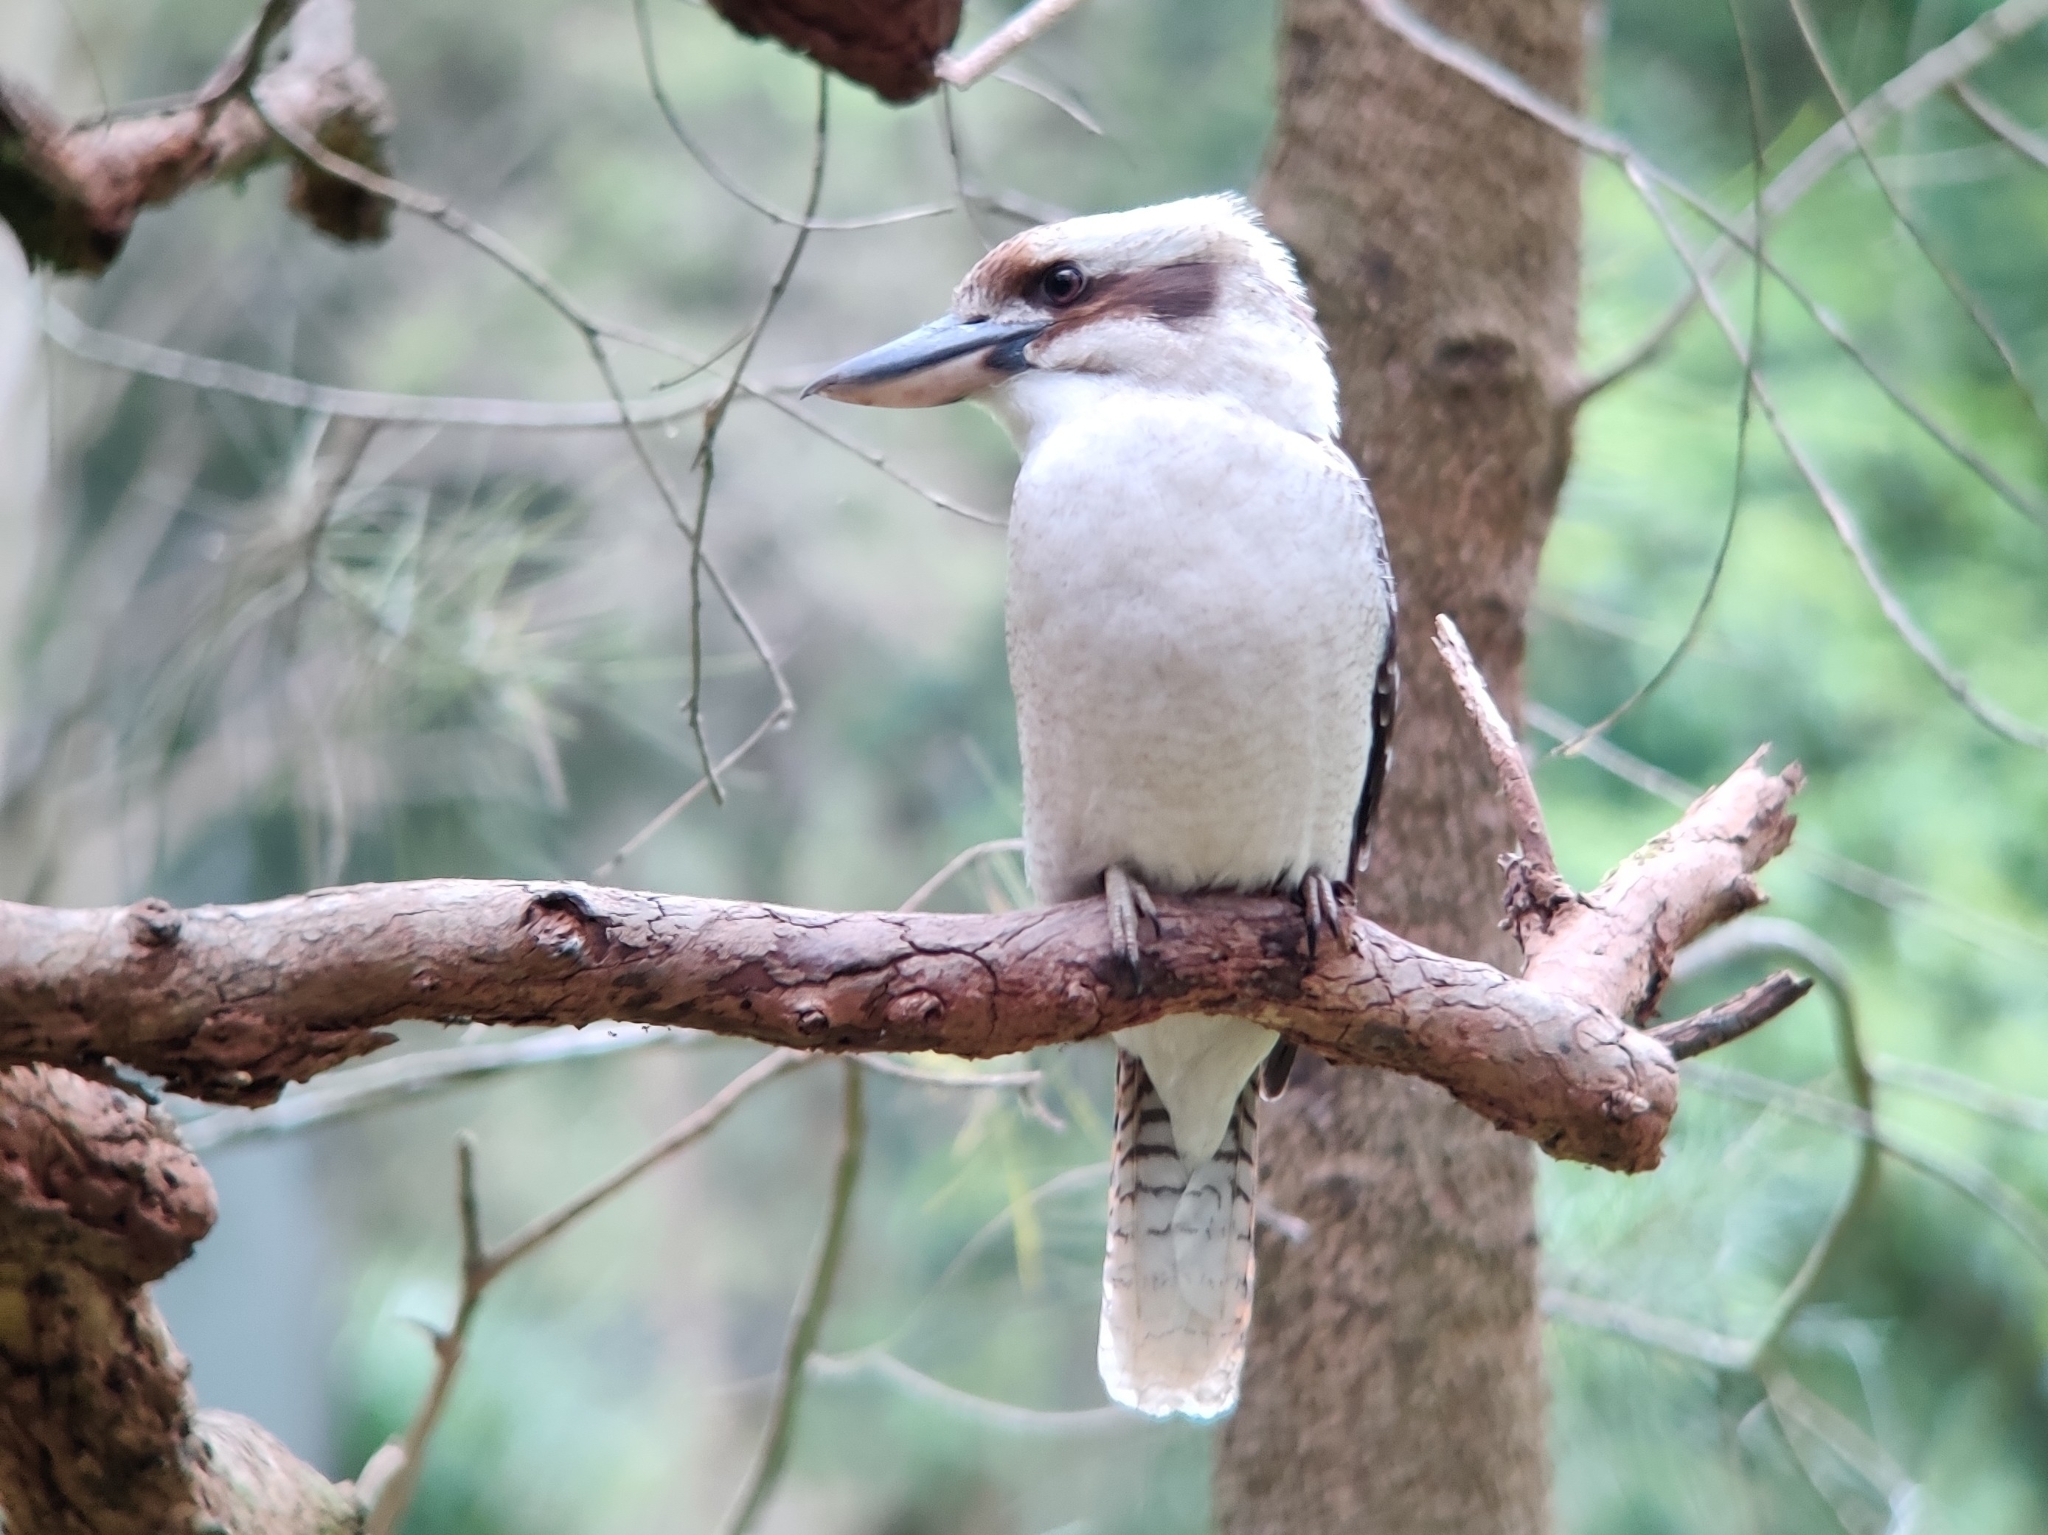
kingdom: Animalia
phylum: Chordata
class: Aves
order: Coraciiformes
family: Alcedinidae
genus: Dacelo
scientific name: Dacelo novaeguineae
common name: Laughing kookaburra
